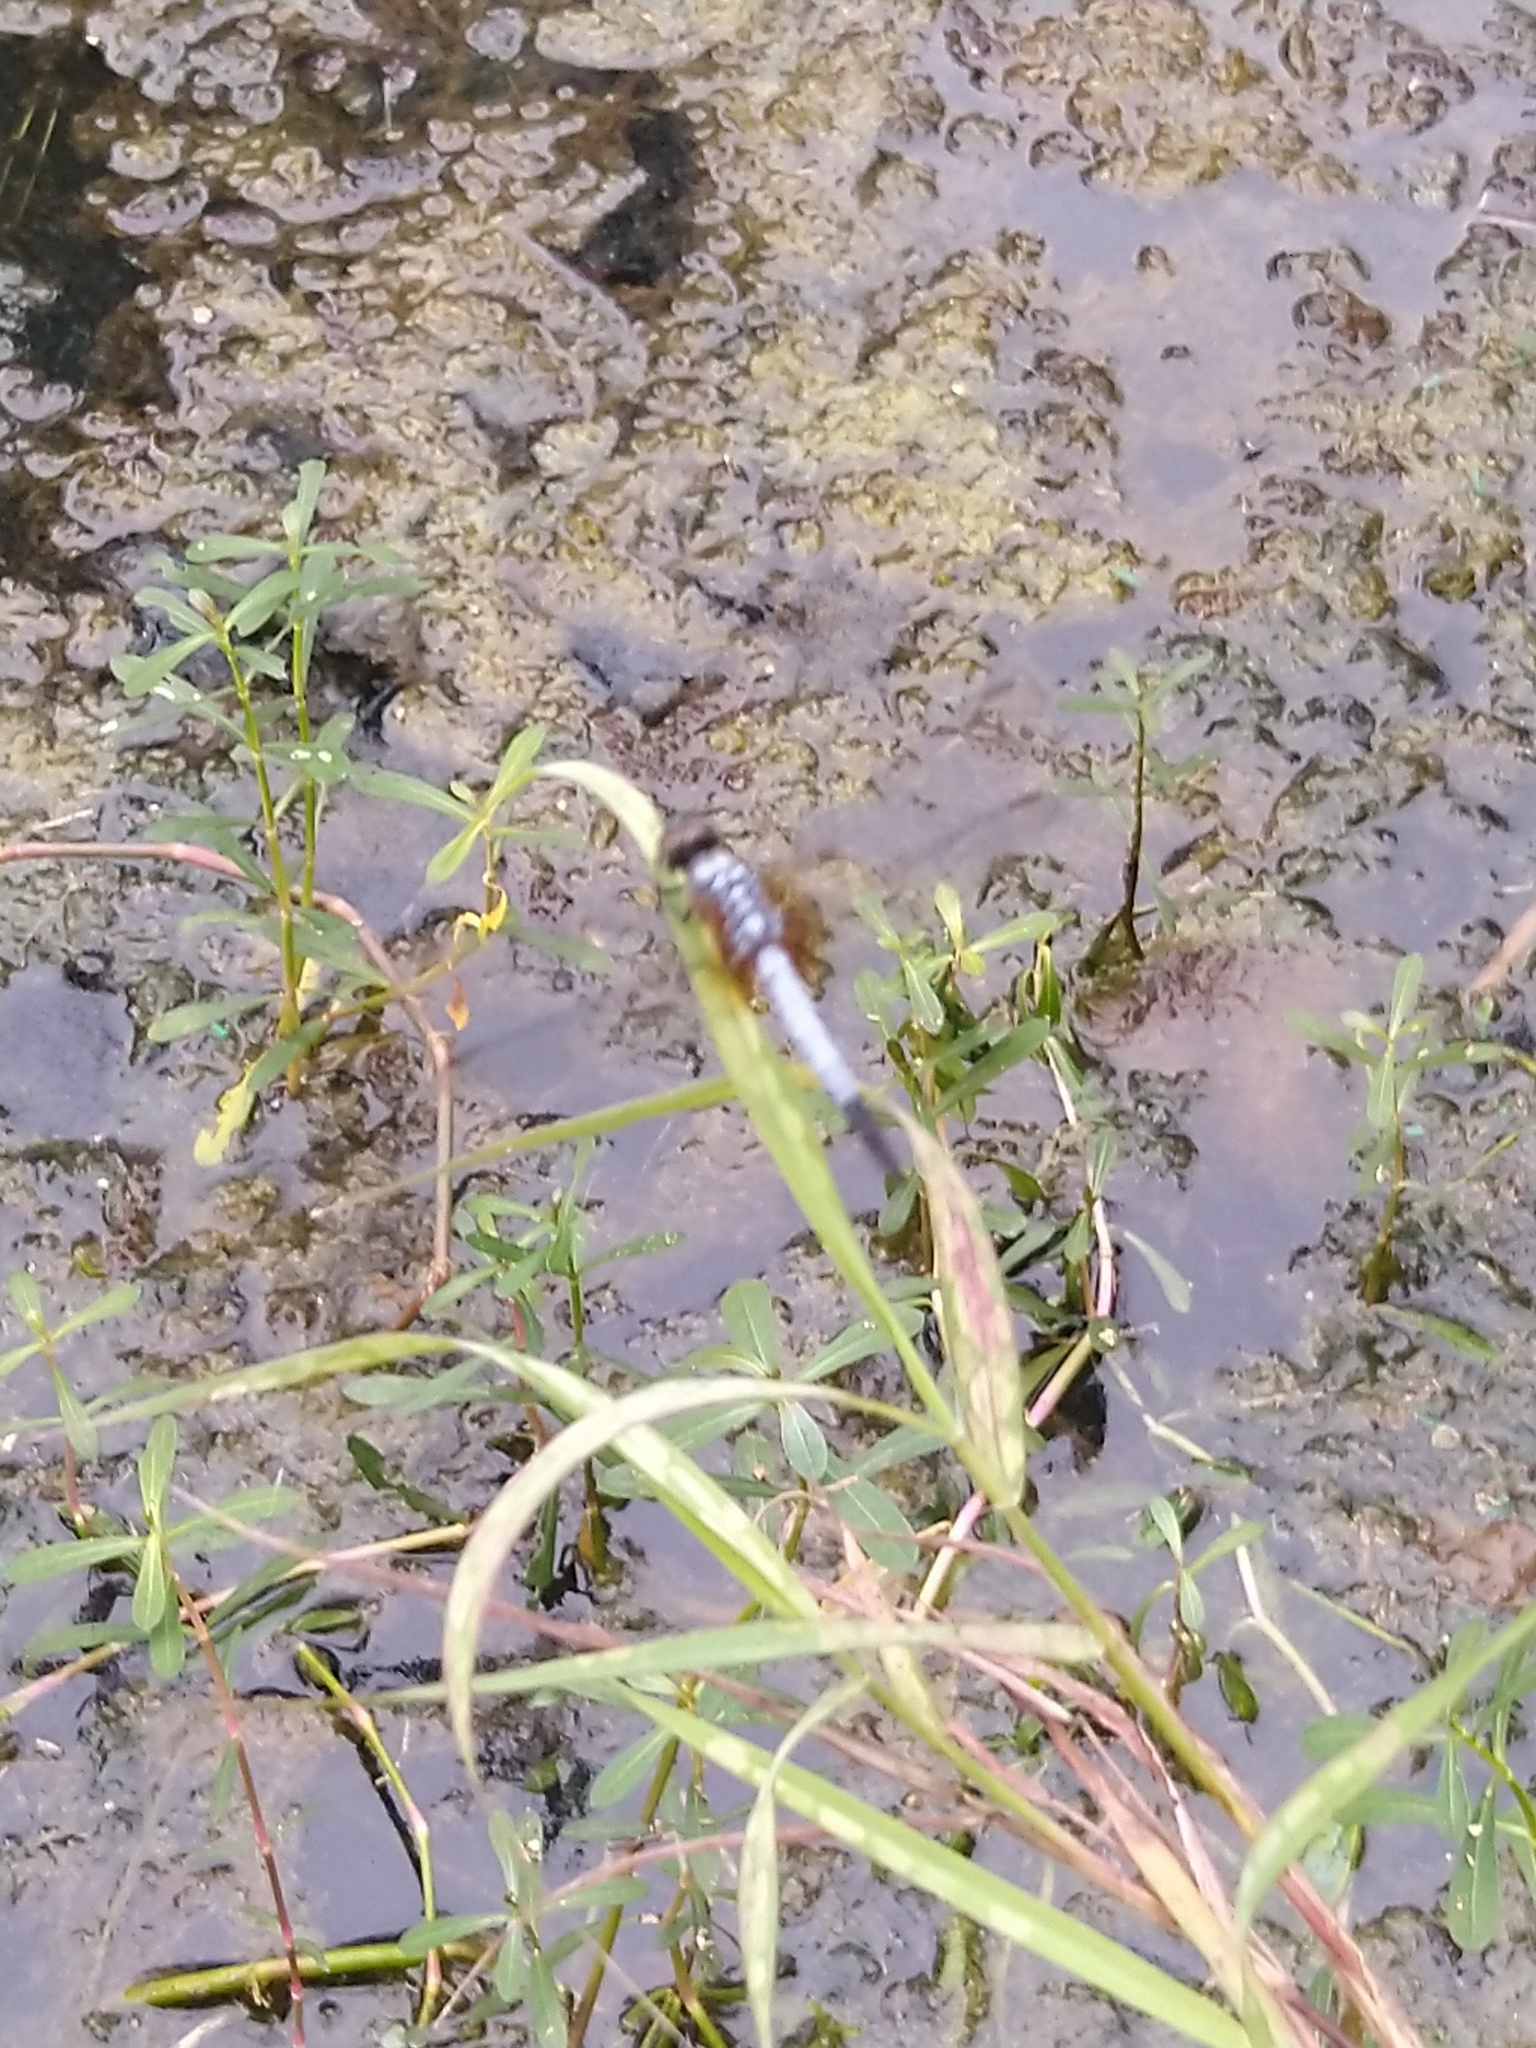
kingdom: Animalia
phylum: Arthropoda
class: Insecta
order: Odonata
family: Libellulidae
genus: Brachydiplax
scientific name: Brachydiplax chalybea
